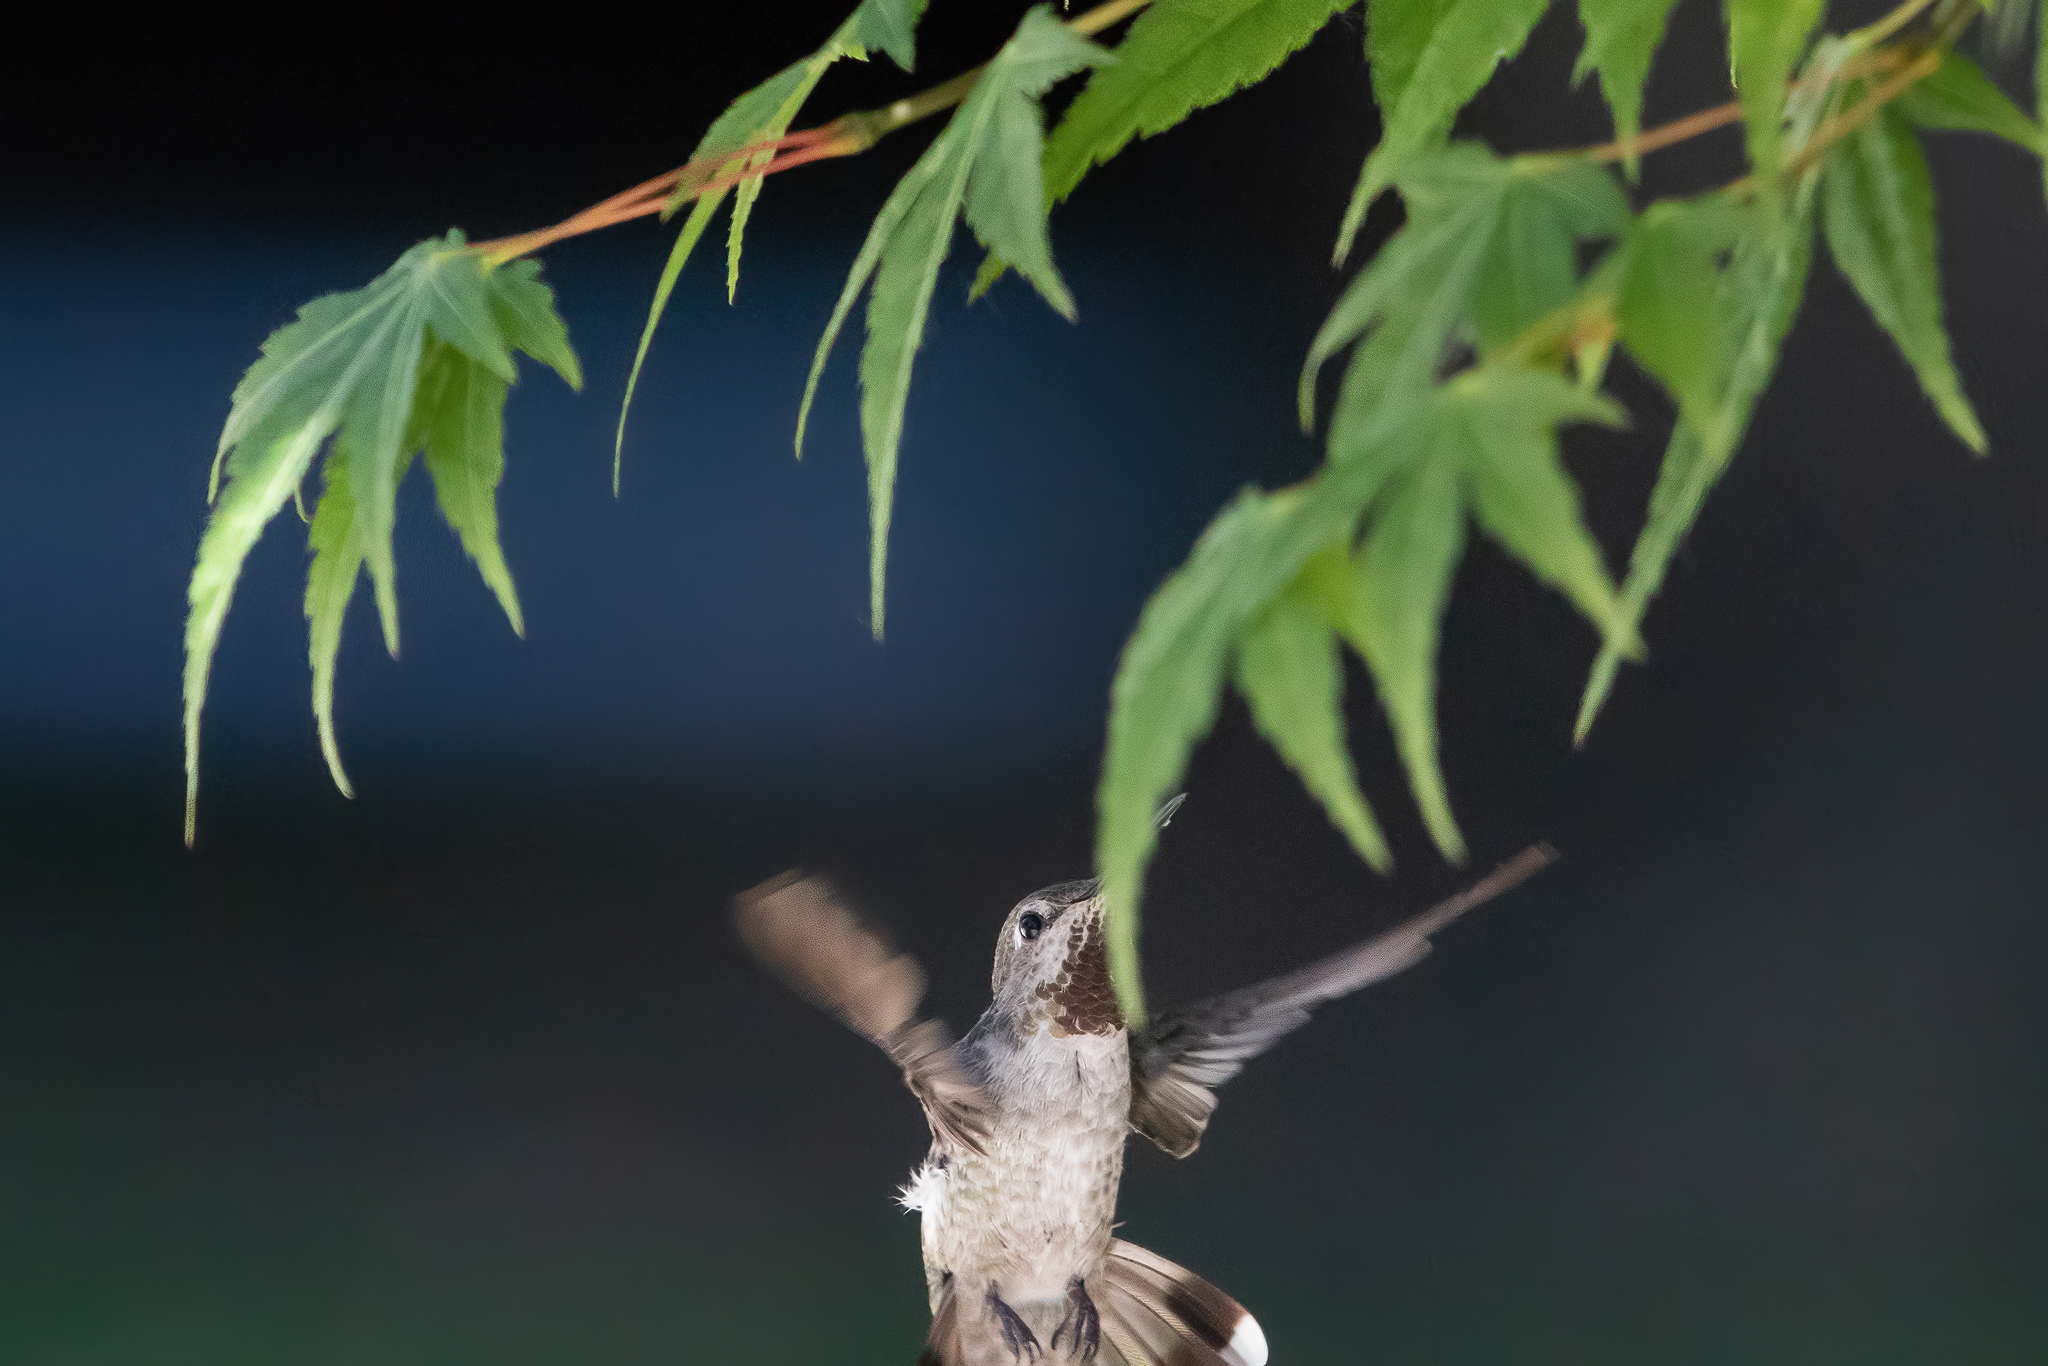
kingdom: Animalia
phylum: Chordata
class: Aves
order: Apodiformes
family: Trochilidae
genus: Calypte
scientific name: Calypte anna
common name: Anna's hummingbird
